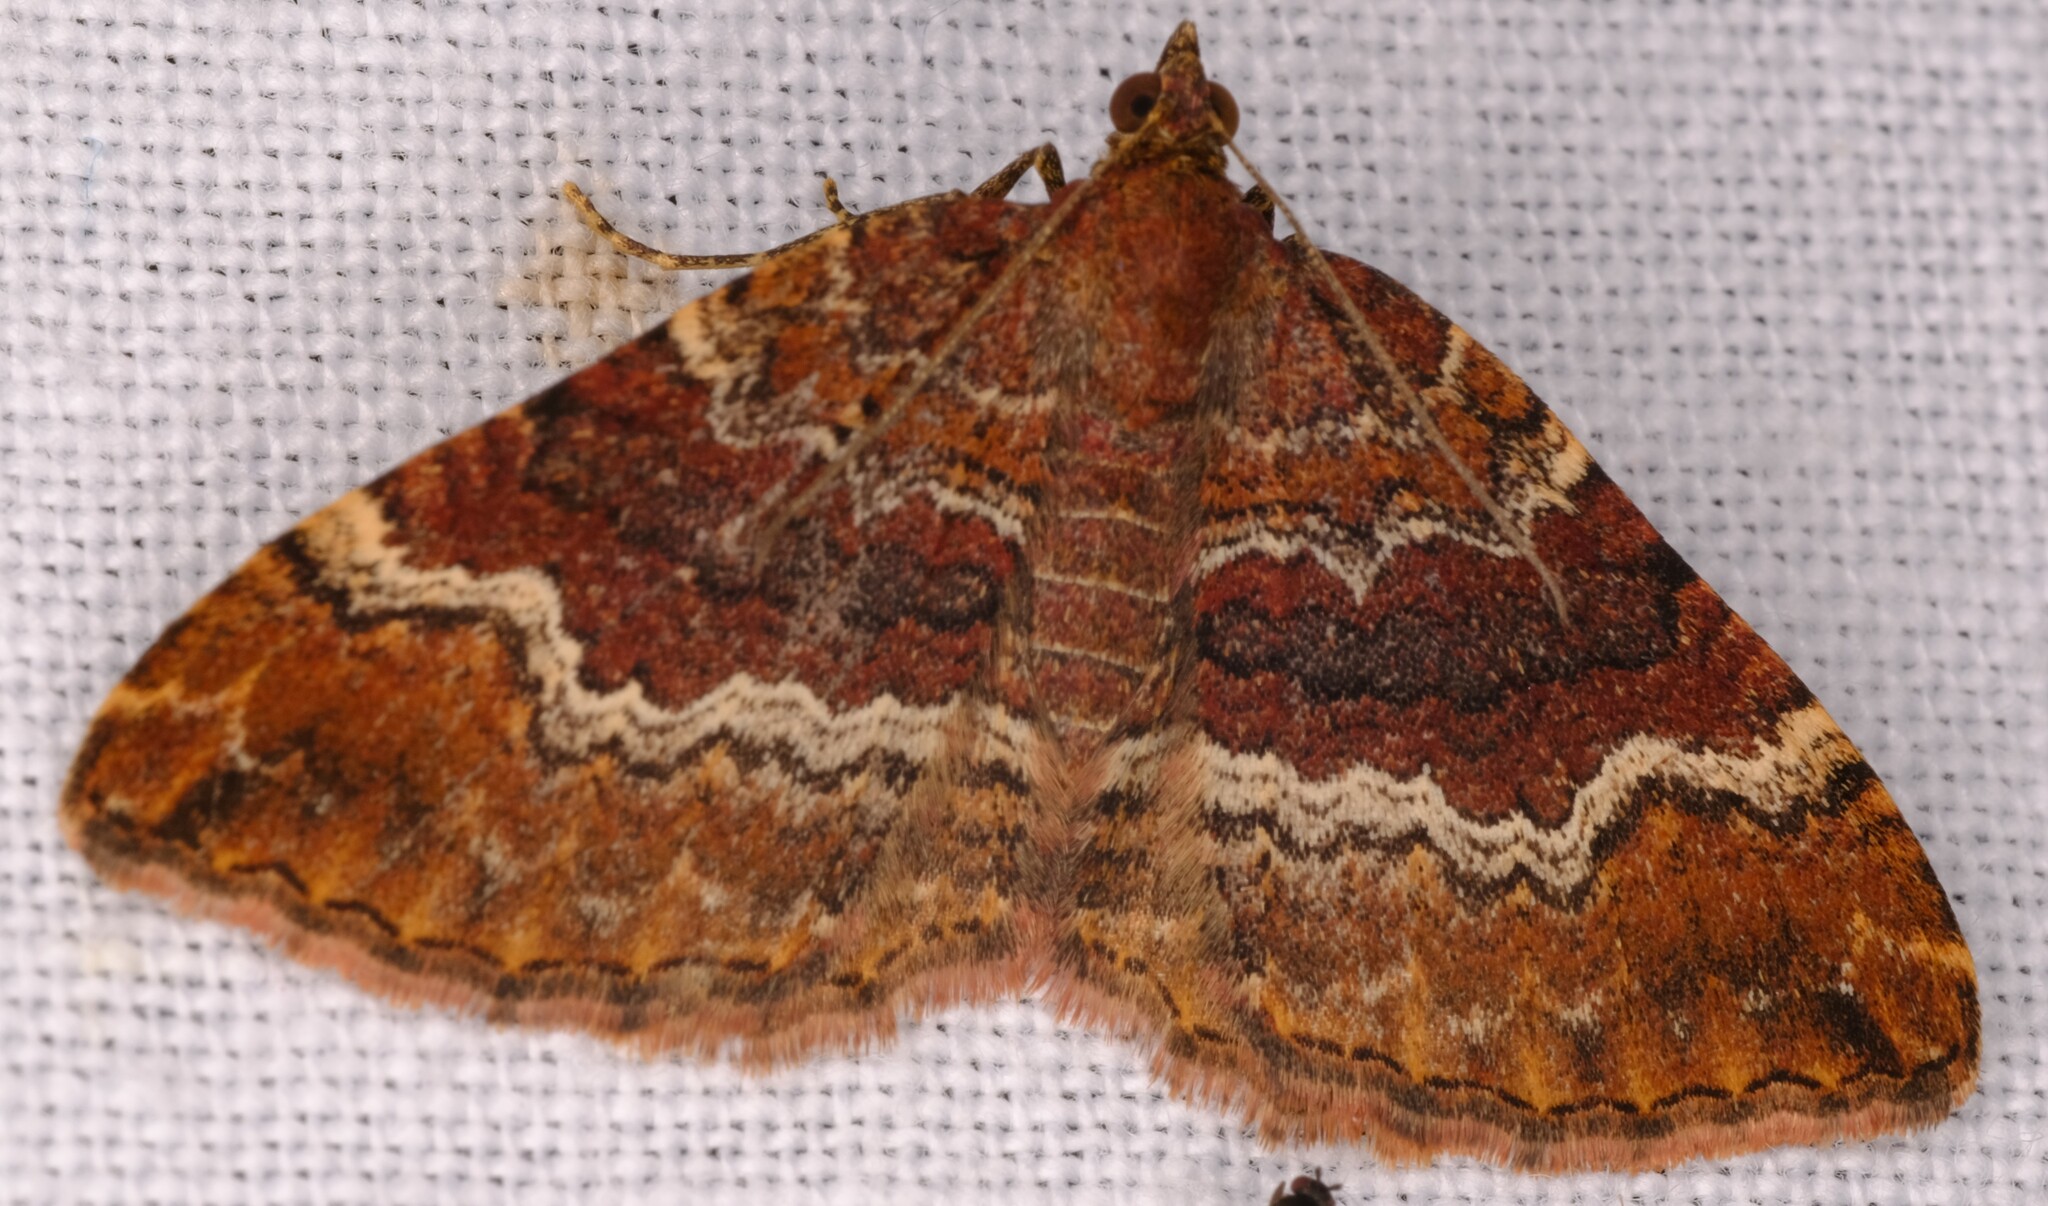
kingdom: Animalia
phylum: Arthropoda
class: Insecta
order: Lepidoptera
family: Geometridae
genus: Chrysolarentia
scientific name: Chrysolarentia bichromata
